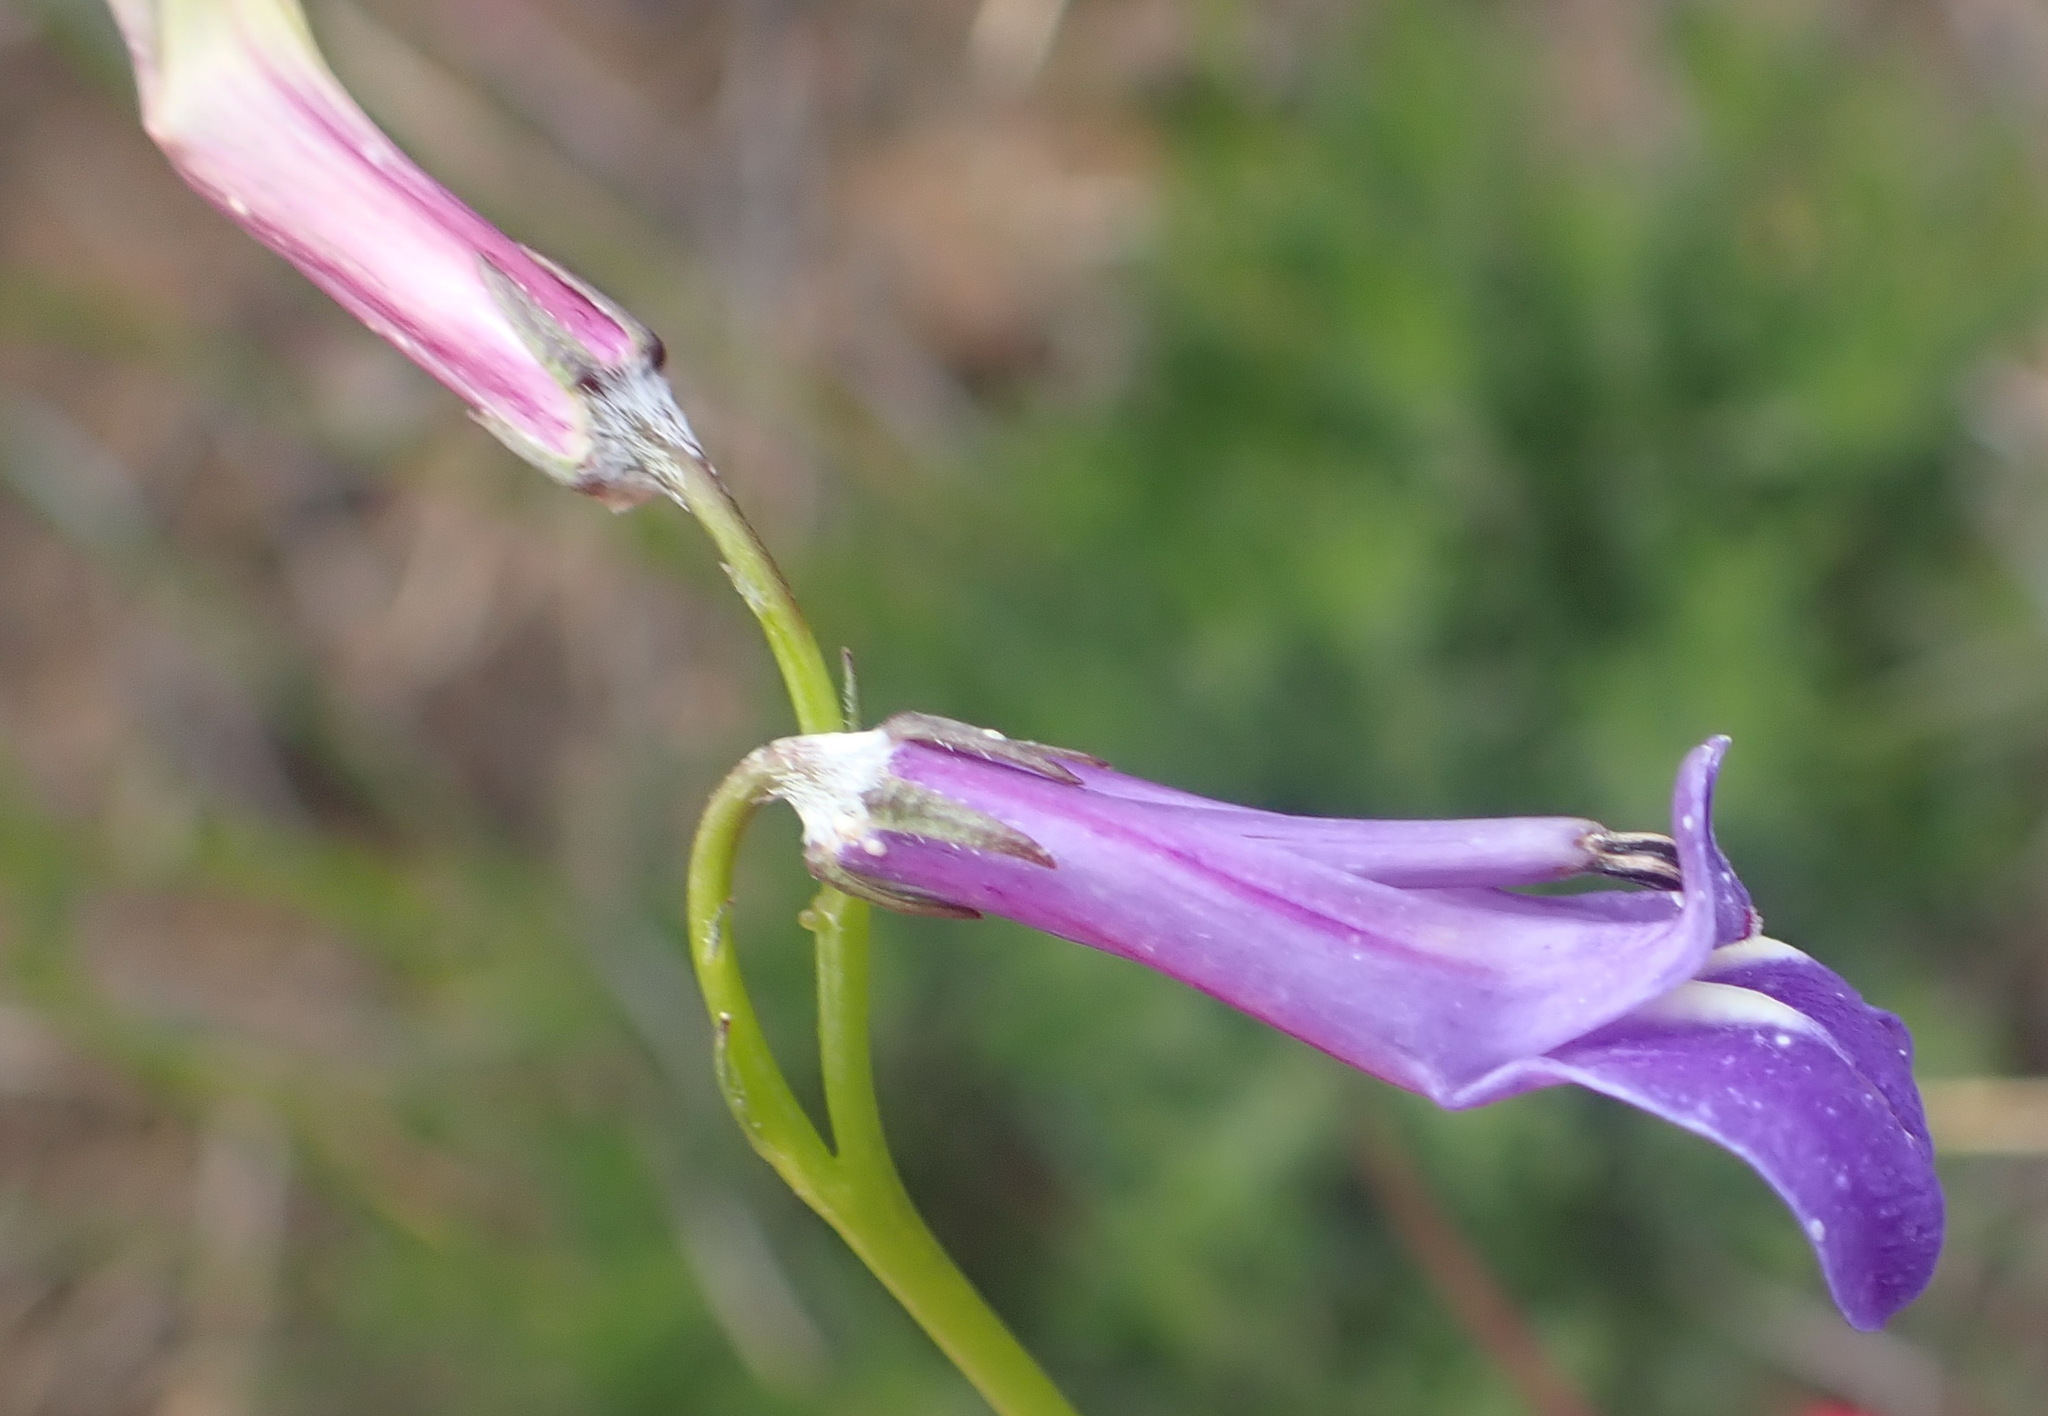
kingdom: Plantae
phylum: Tracheophyta
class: Magnoliopsida
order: Asterales
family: Campanulaceae
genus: Lobelia
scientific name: Lobelia coronopifolia
